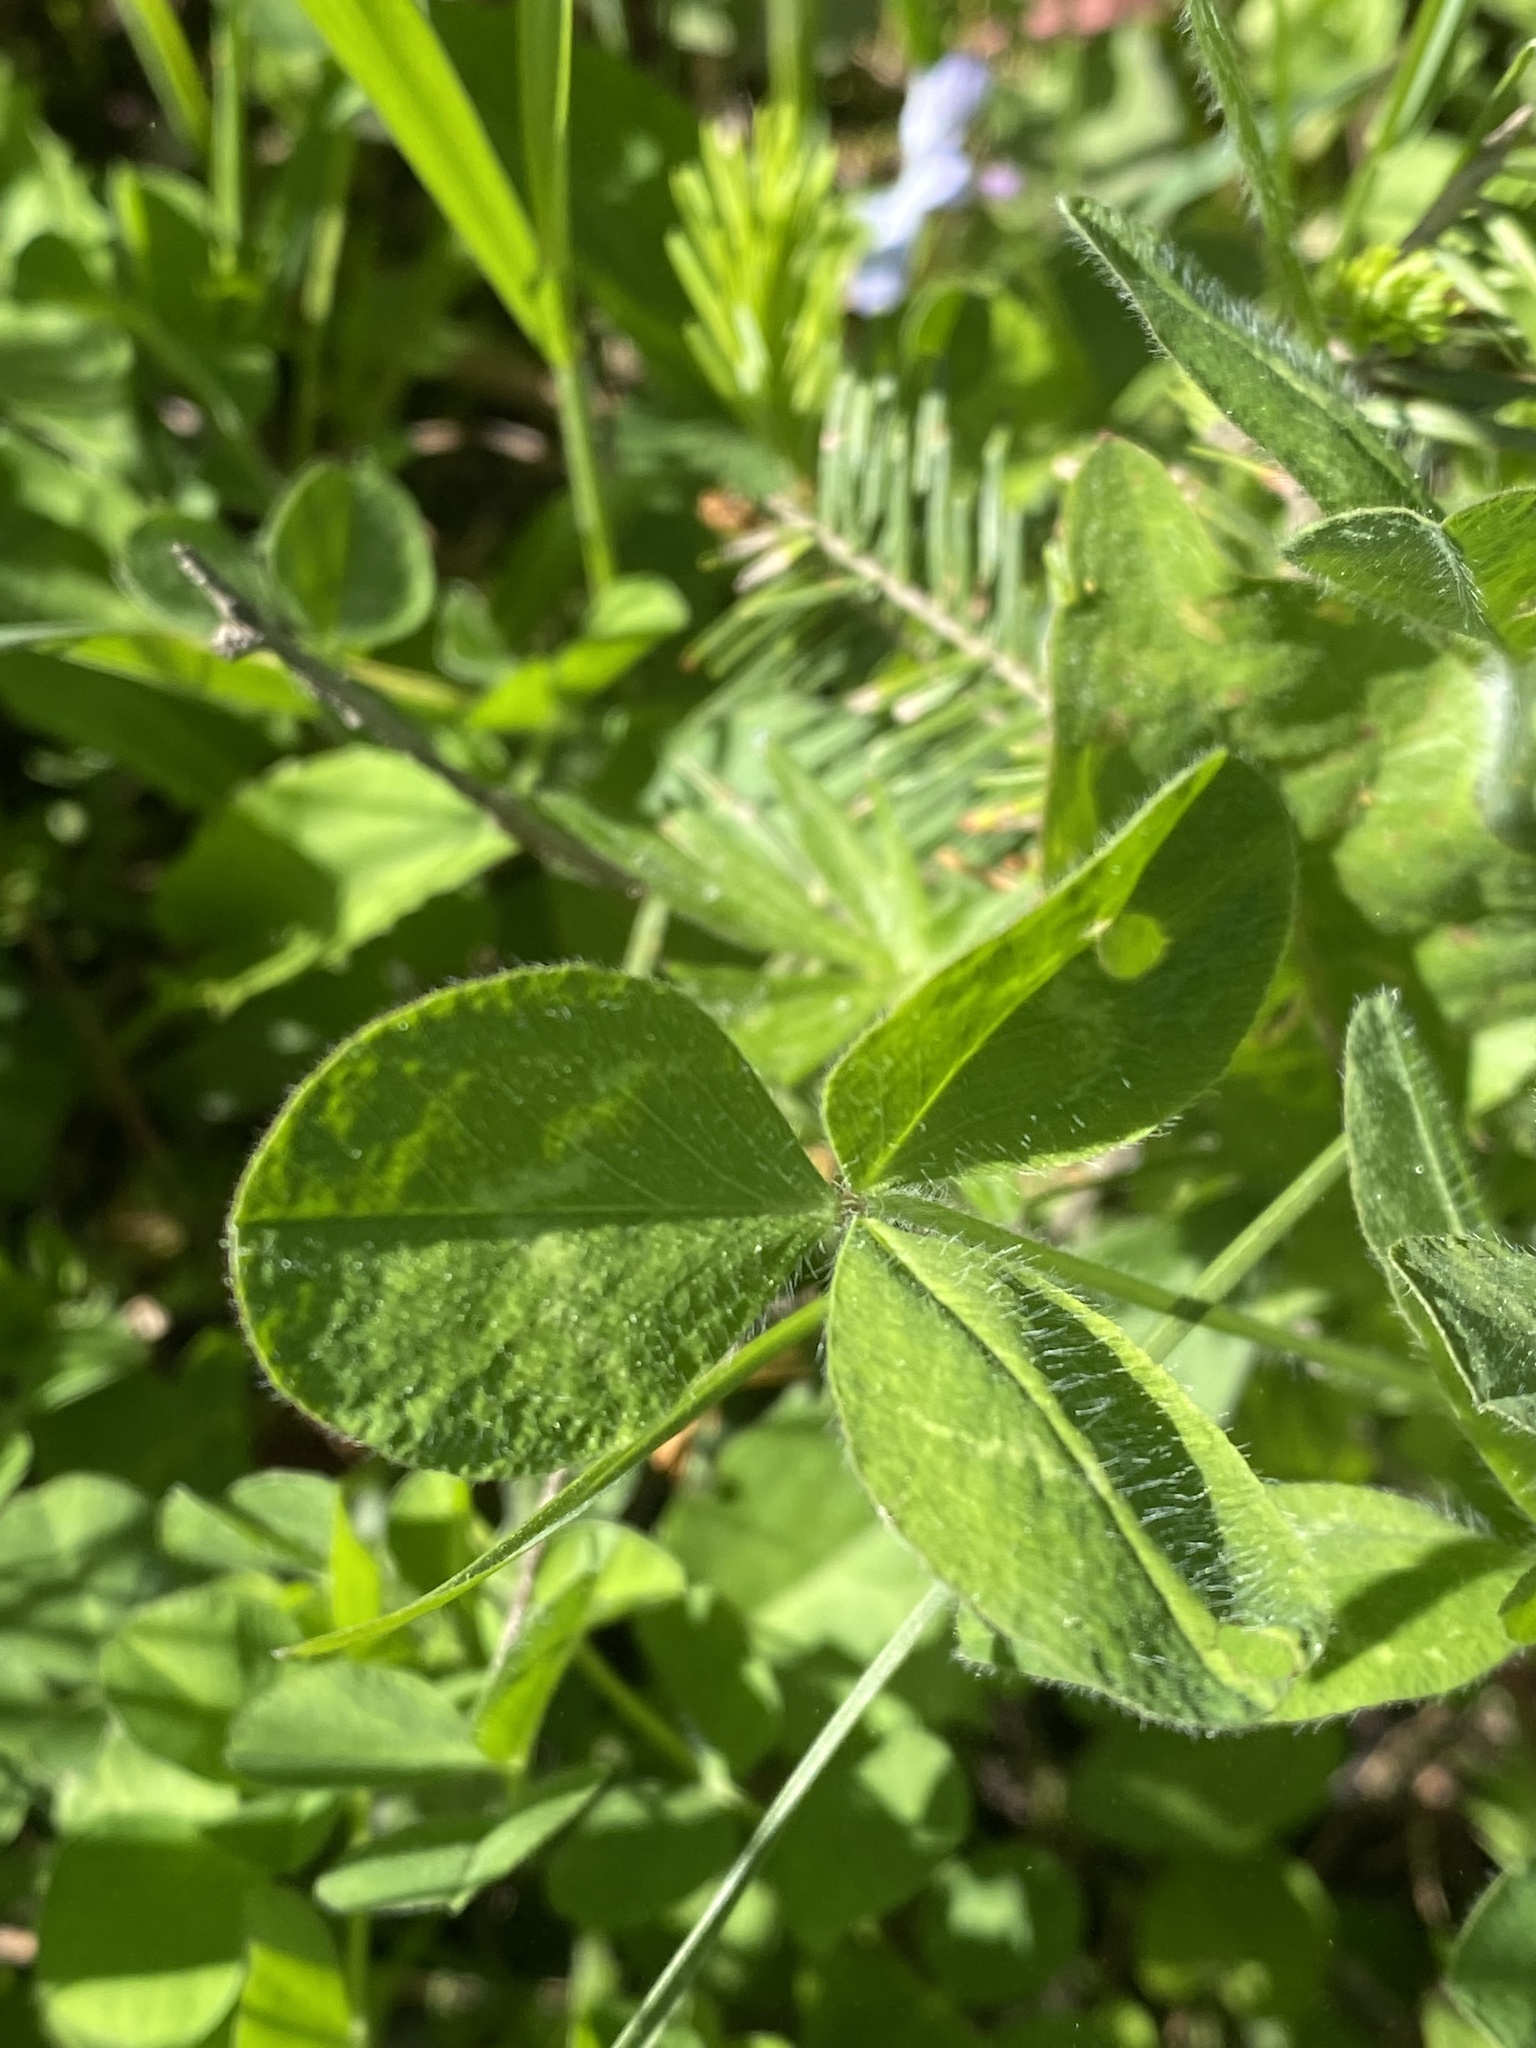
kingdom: Plantae
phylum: Tracheophyta
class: Magnoliopsida
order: Fabales
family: Fabaceae
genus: Trifolium
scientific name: Trifolium pratense
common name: Red clover
